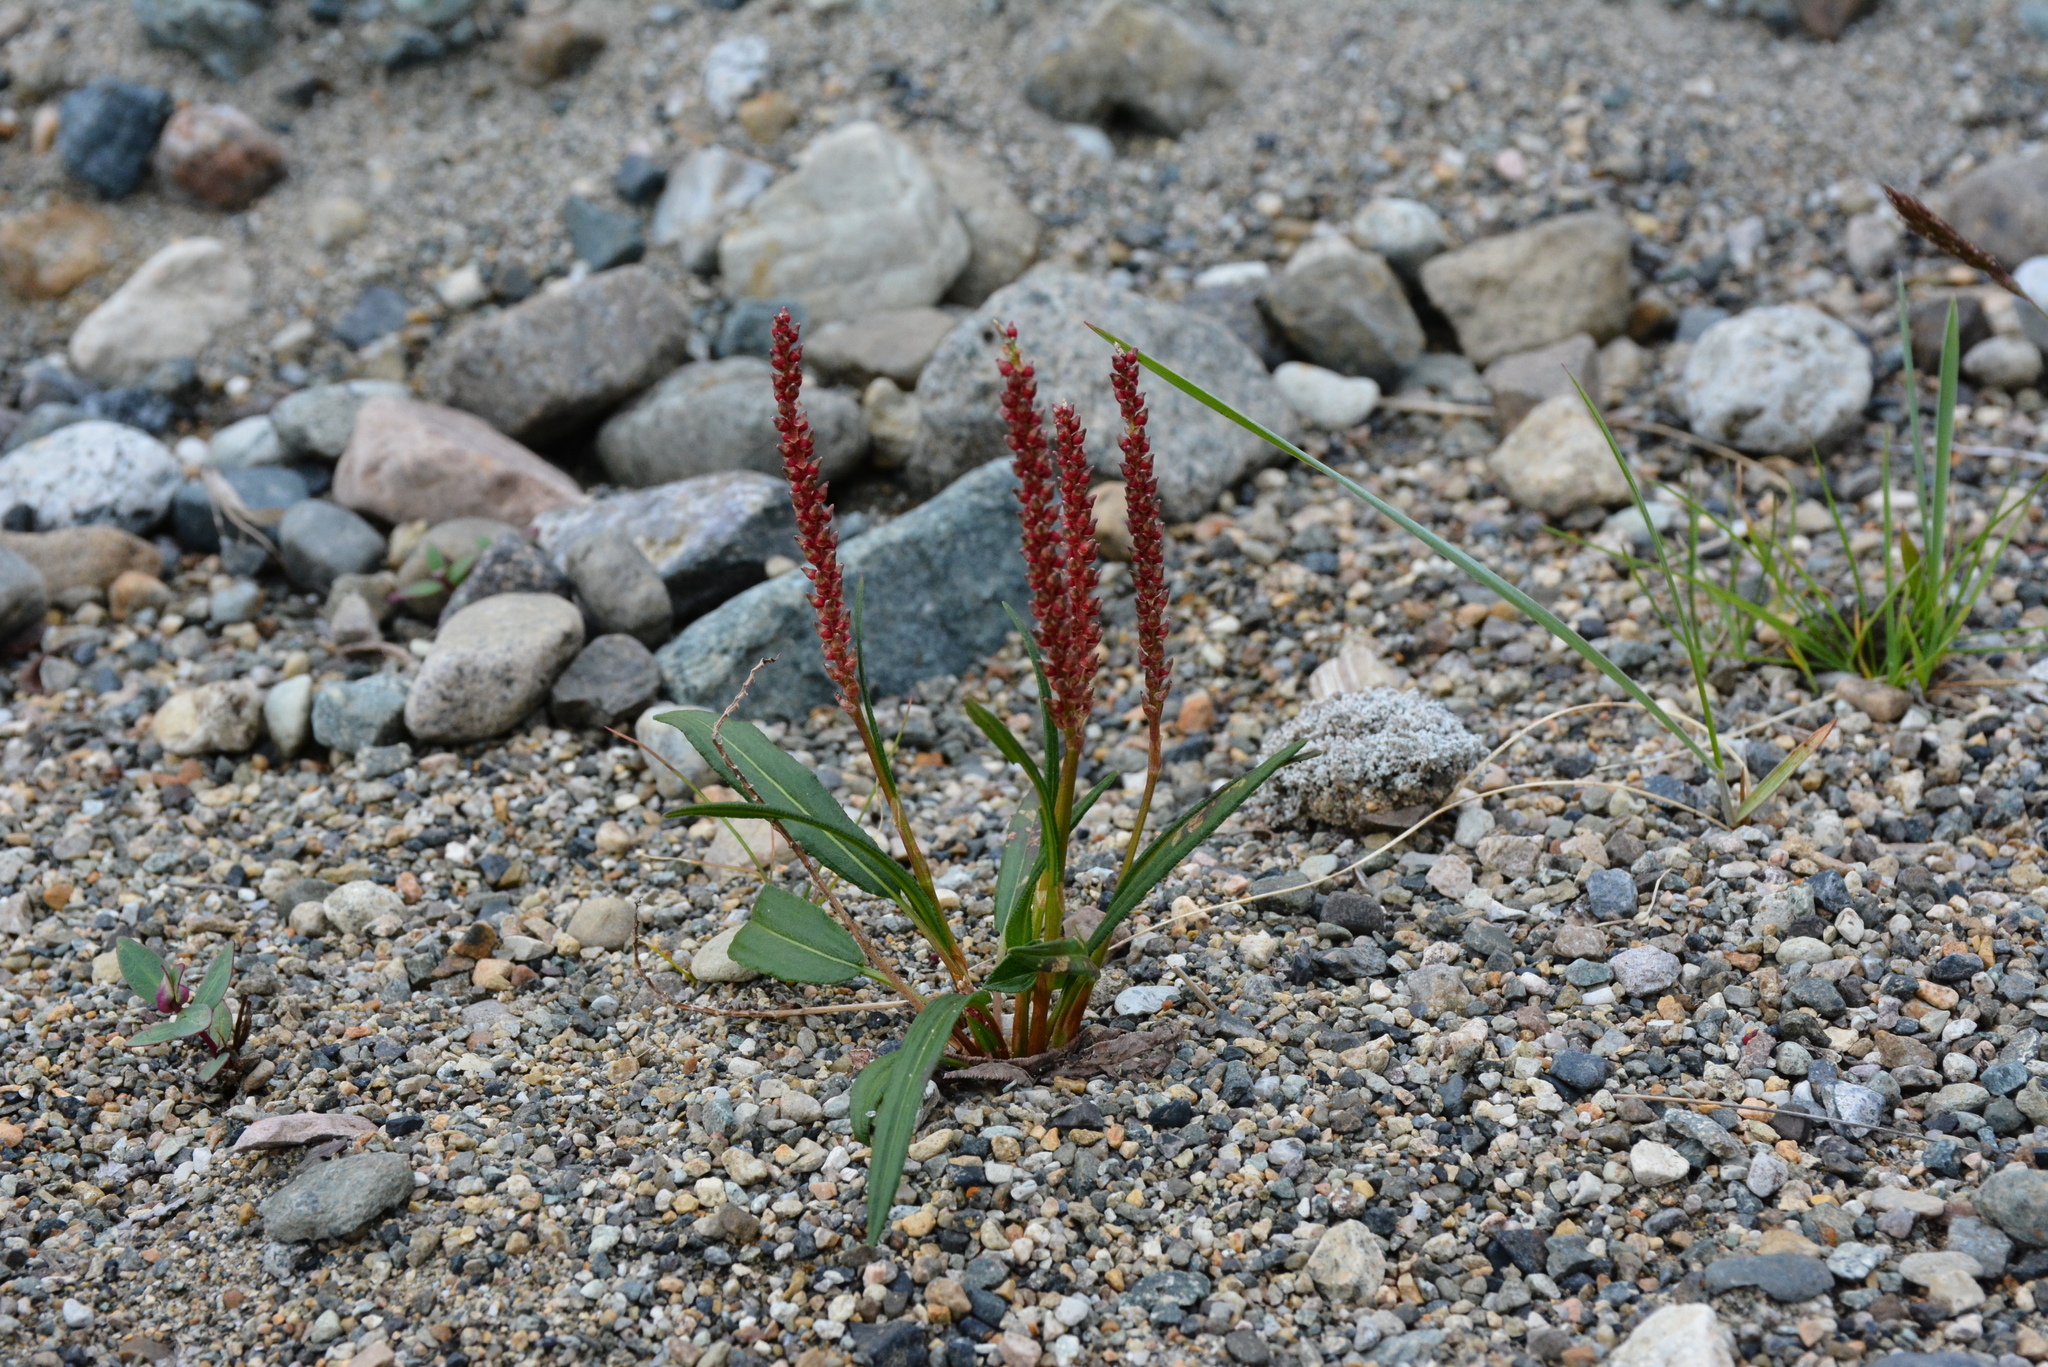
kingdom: Plantae
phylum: Tracheophyta
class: Magnoliopsida
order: Caryophyllales
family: Polygonaceae
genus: Bistorta
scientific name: Bistorta vivipara
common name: Alpine bistort
